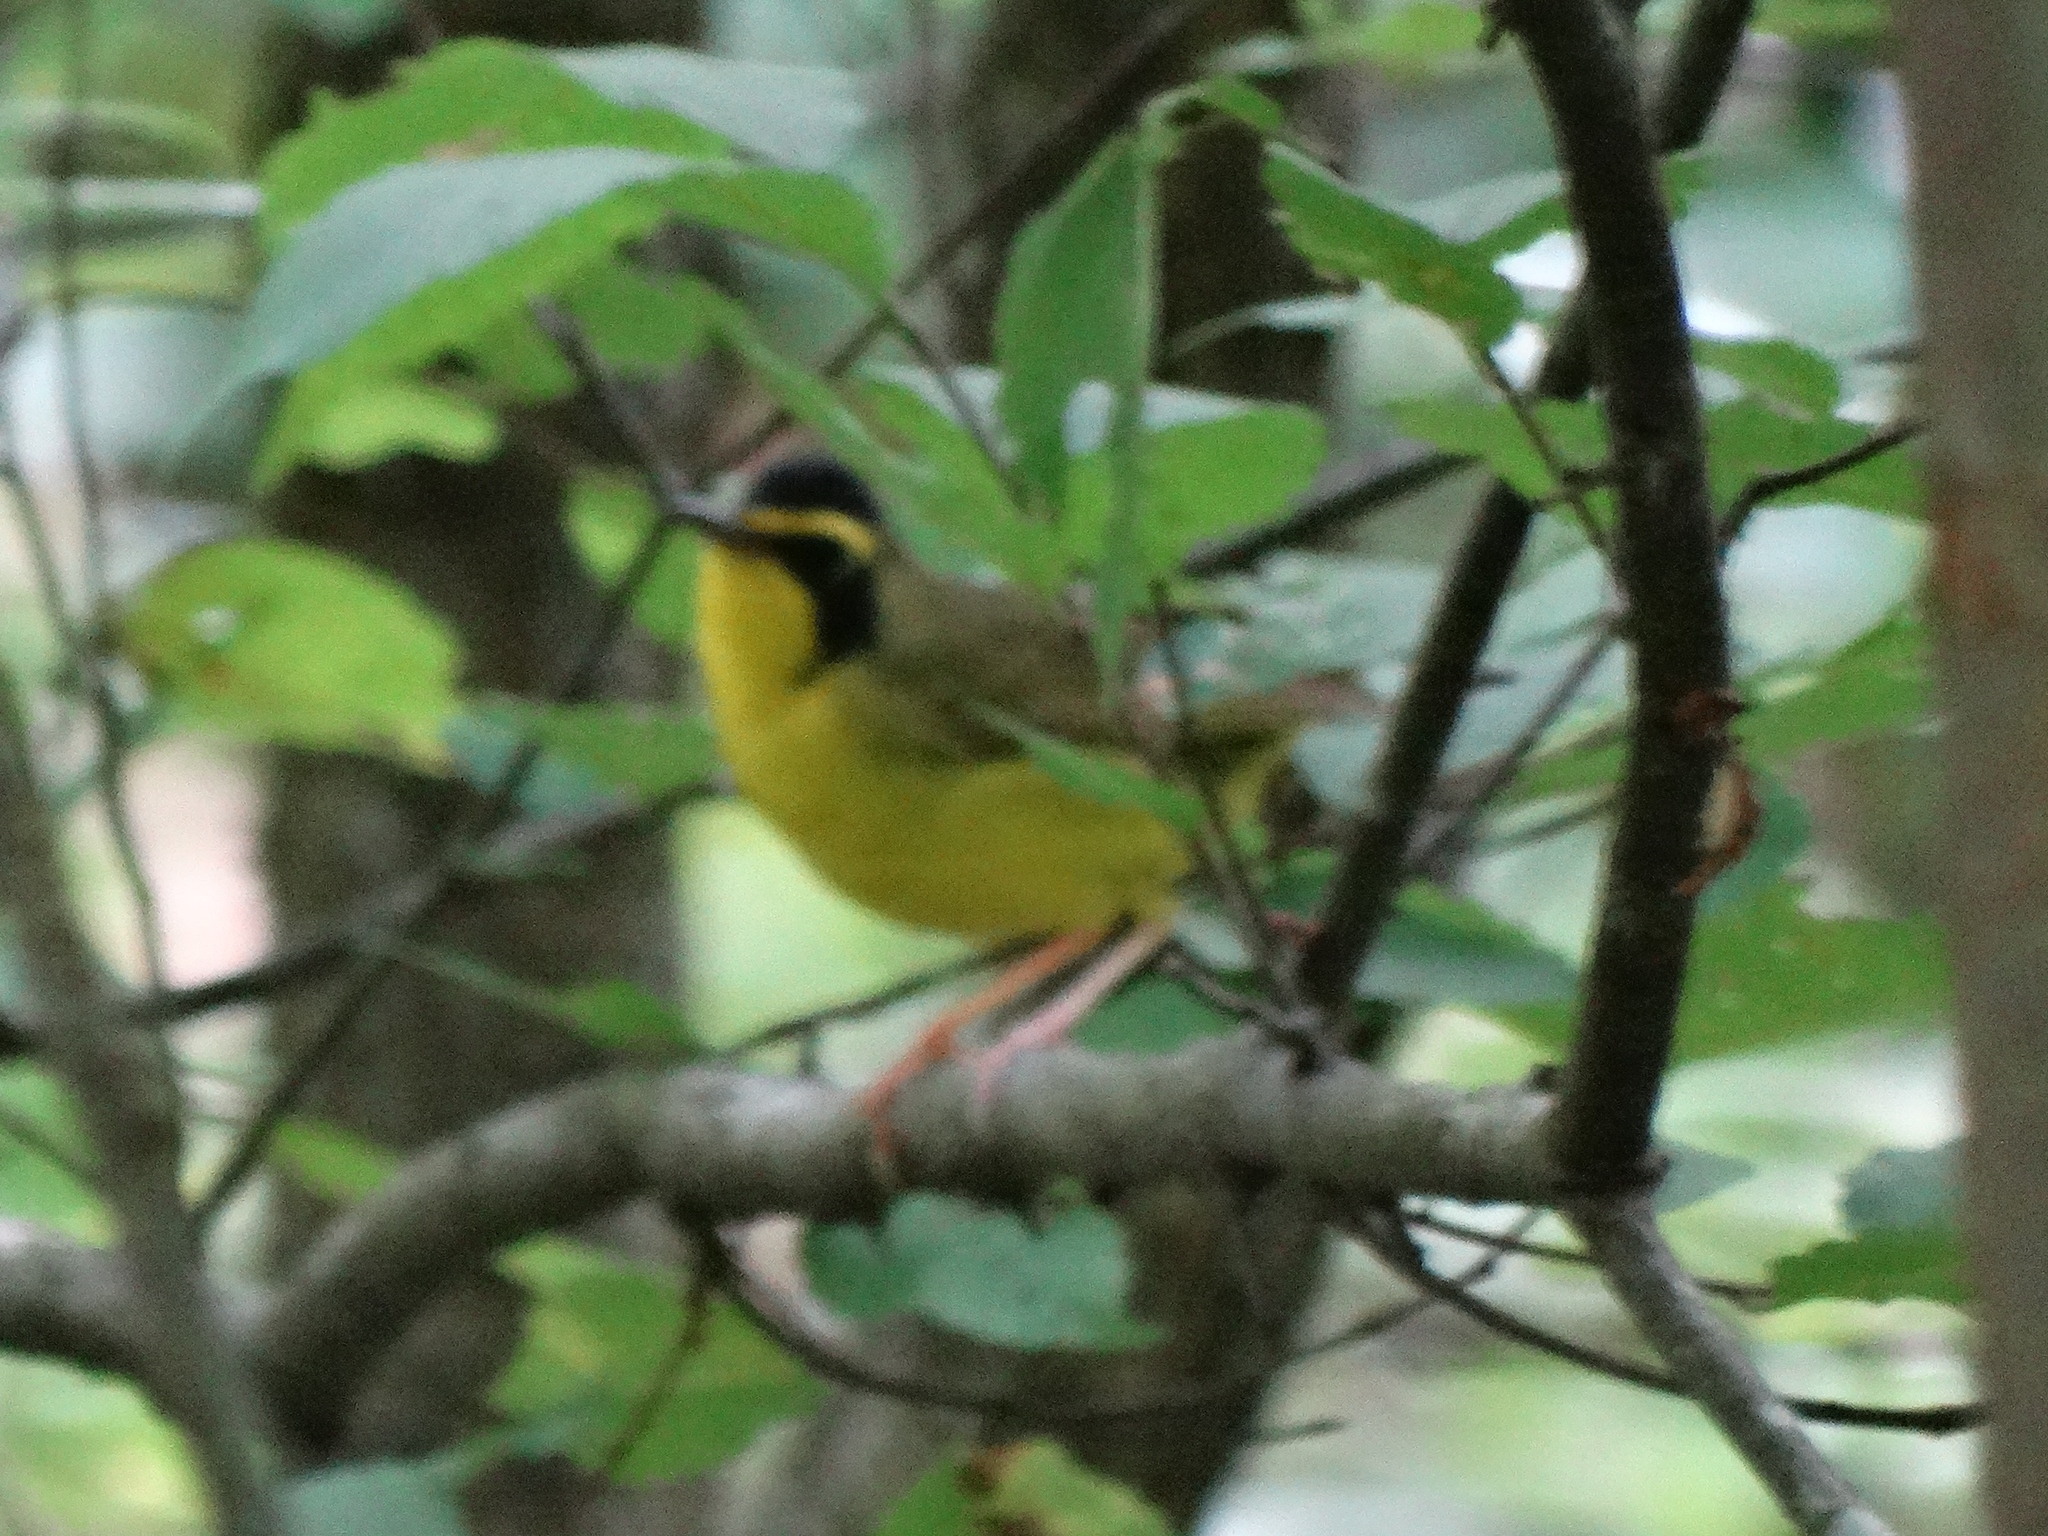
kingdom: Animalia
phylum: Chordata
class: Aves
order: Passeriformes
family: Parulidae
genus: Geothlypis
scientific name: Geothlypis formosa
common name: Kentucky warbler
